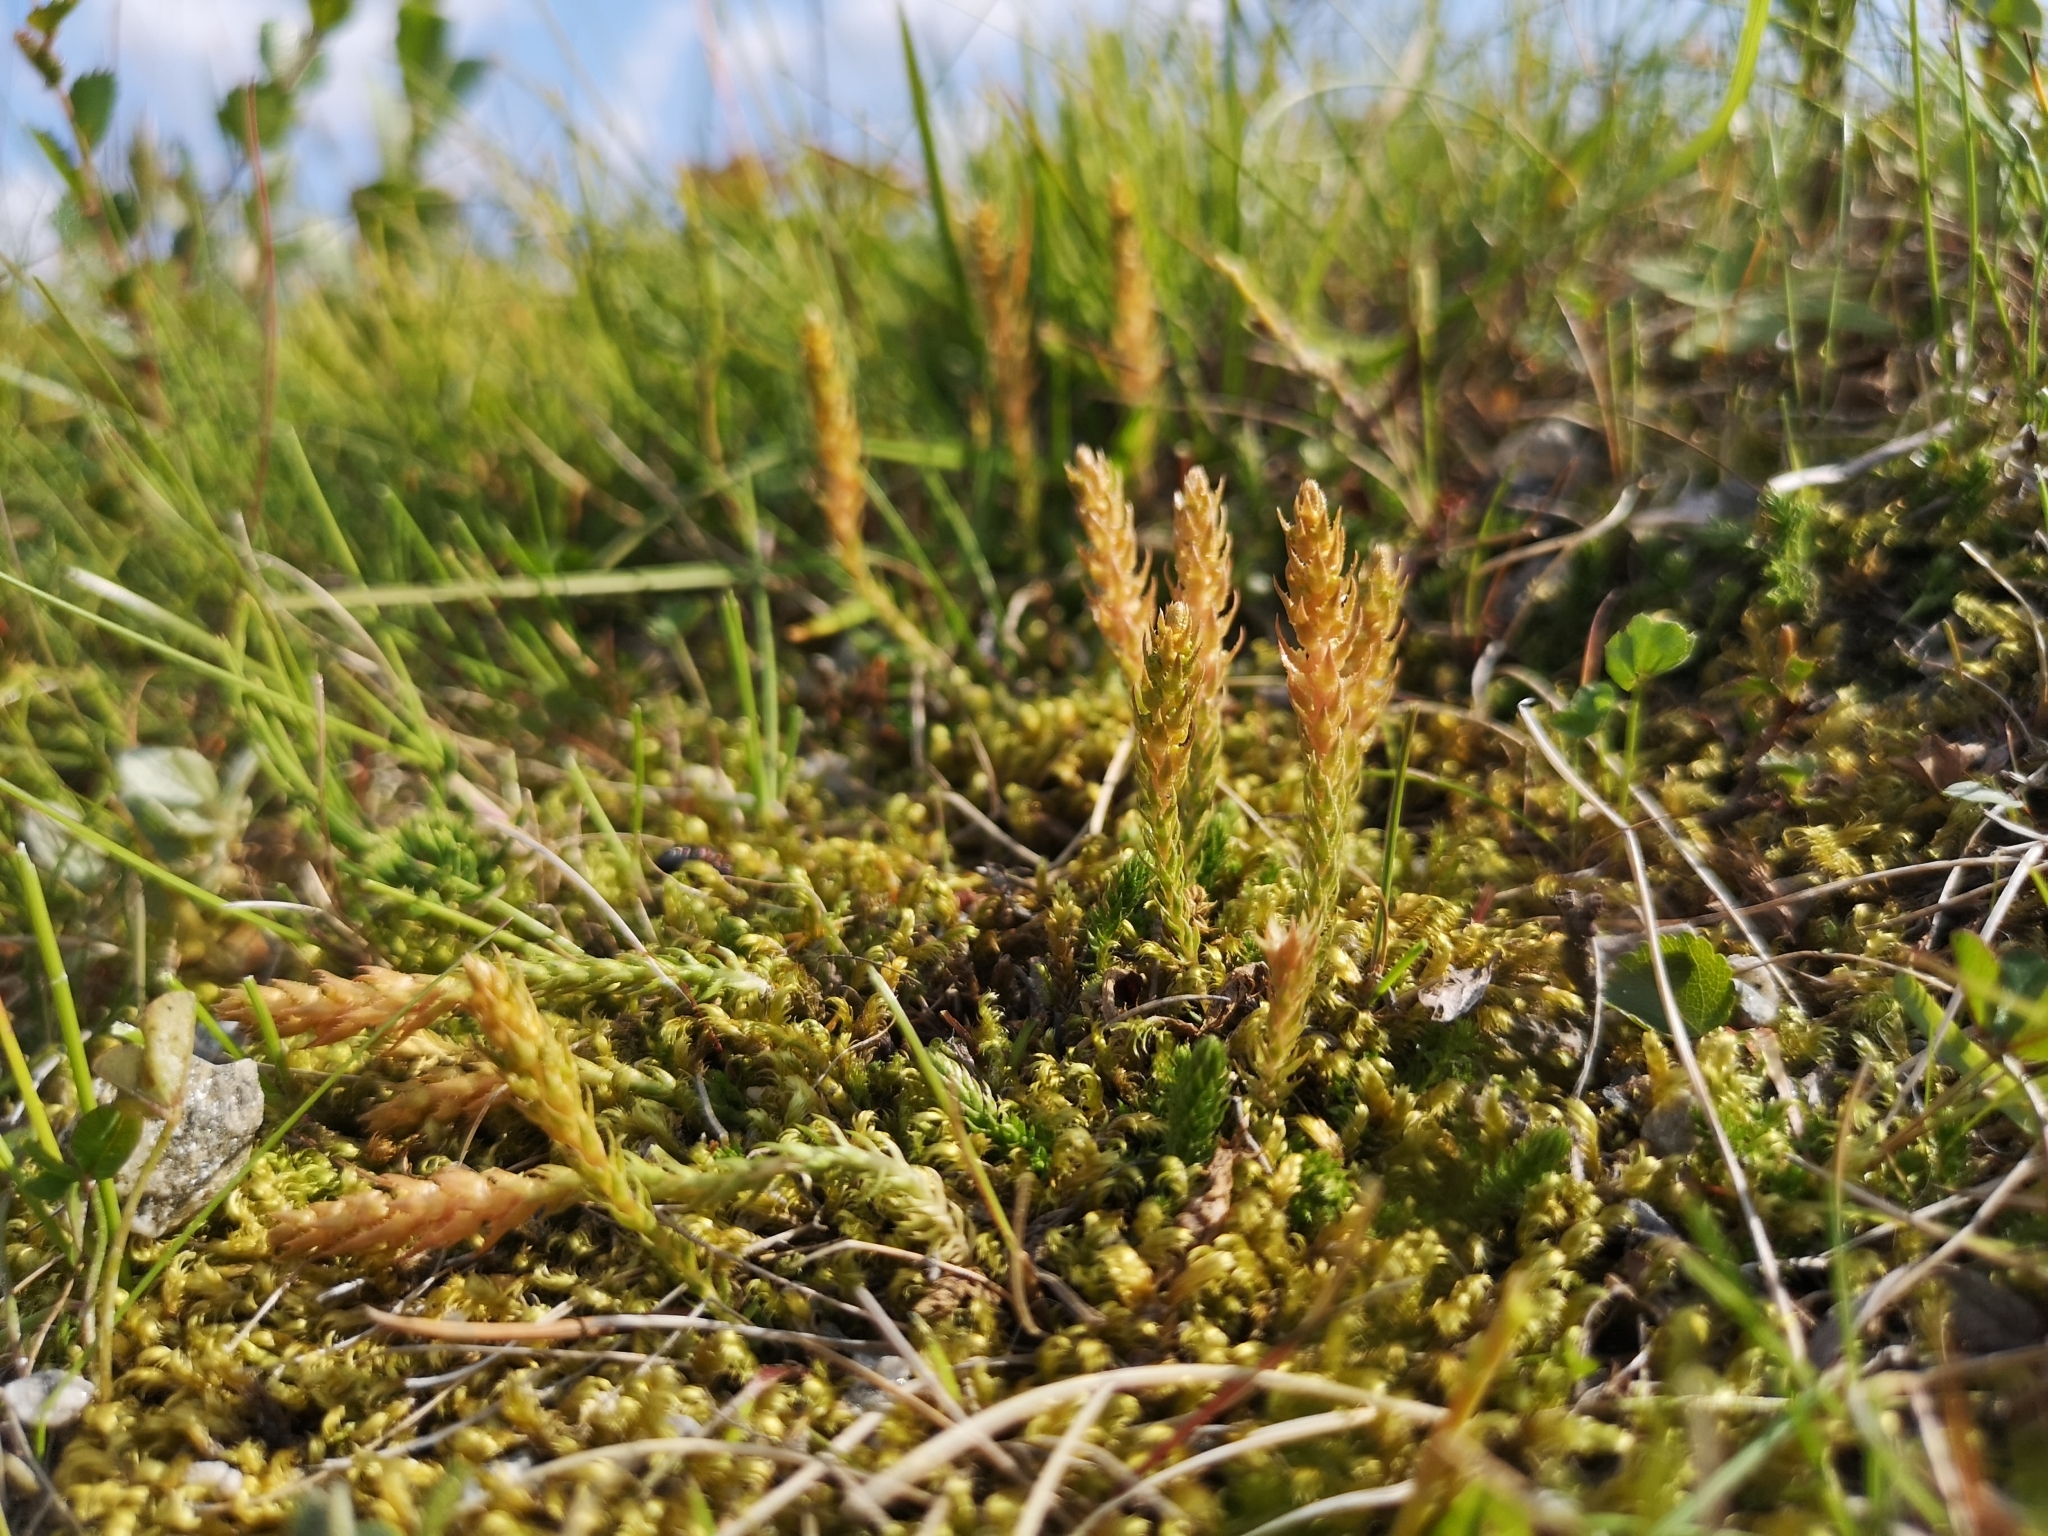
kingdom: Plantae
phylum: Tracheophyta
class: Lycopodiopsida
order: Selaginellales
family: Selaginellaceae
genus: Selaginella
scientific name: Selaginella selaginoides
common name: Prickly mountain-moss
